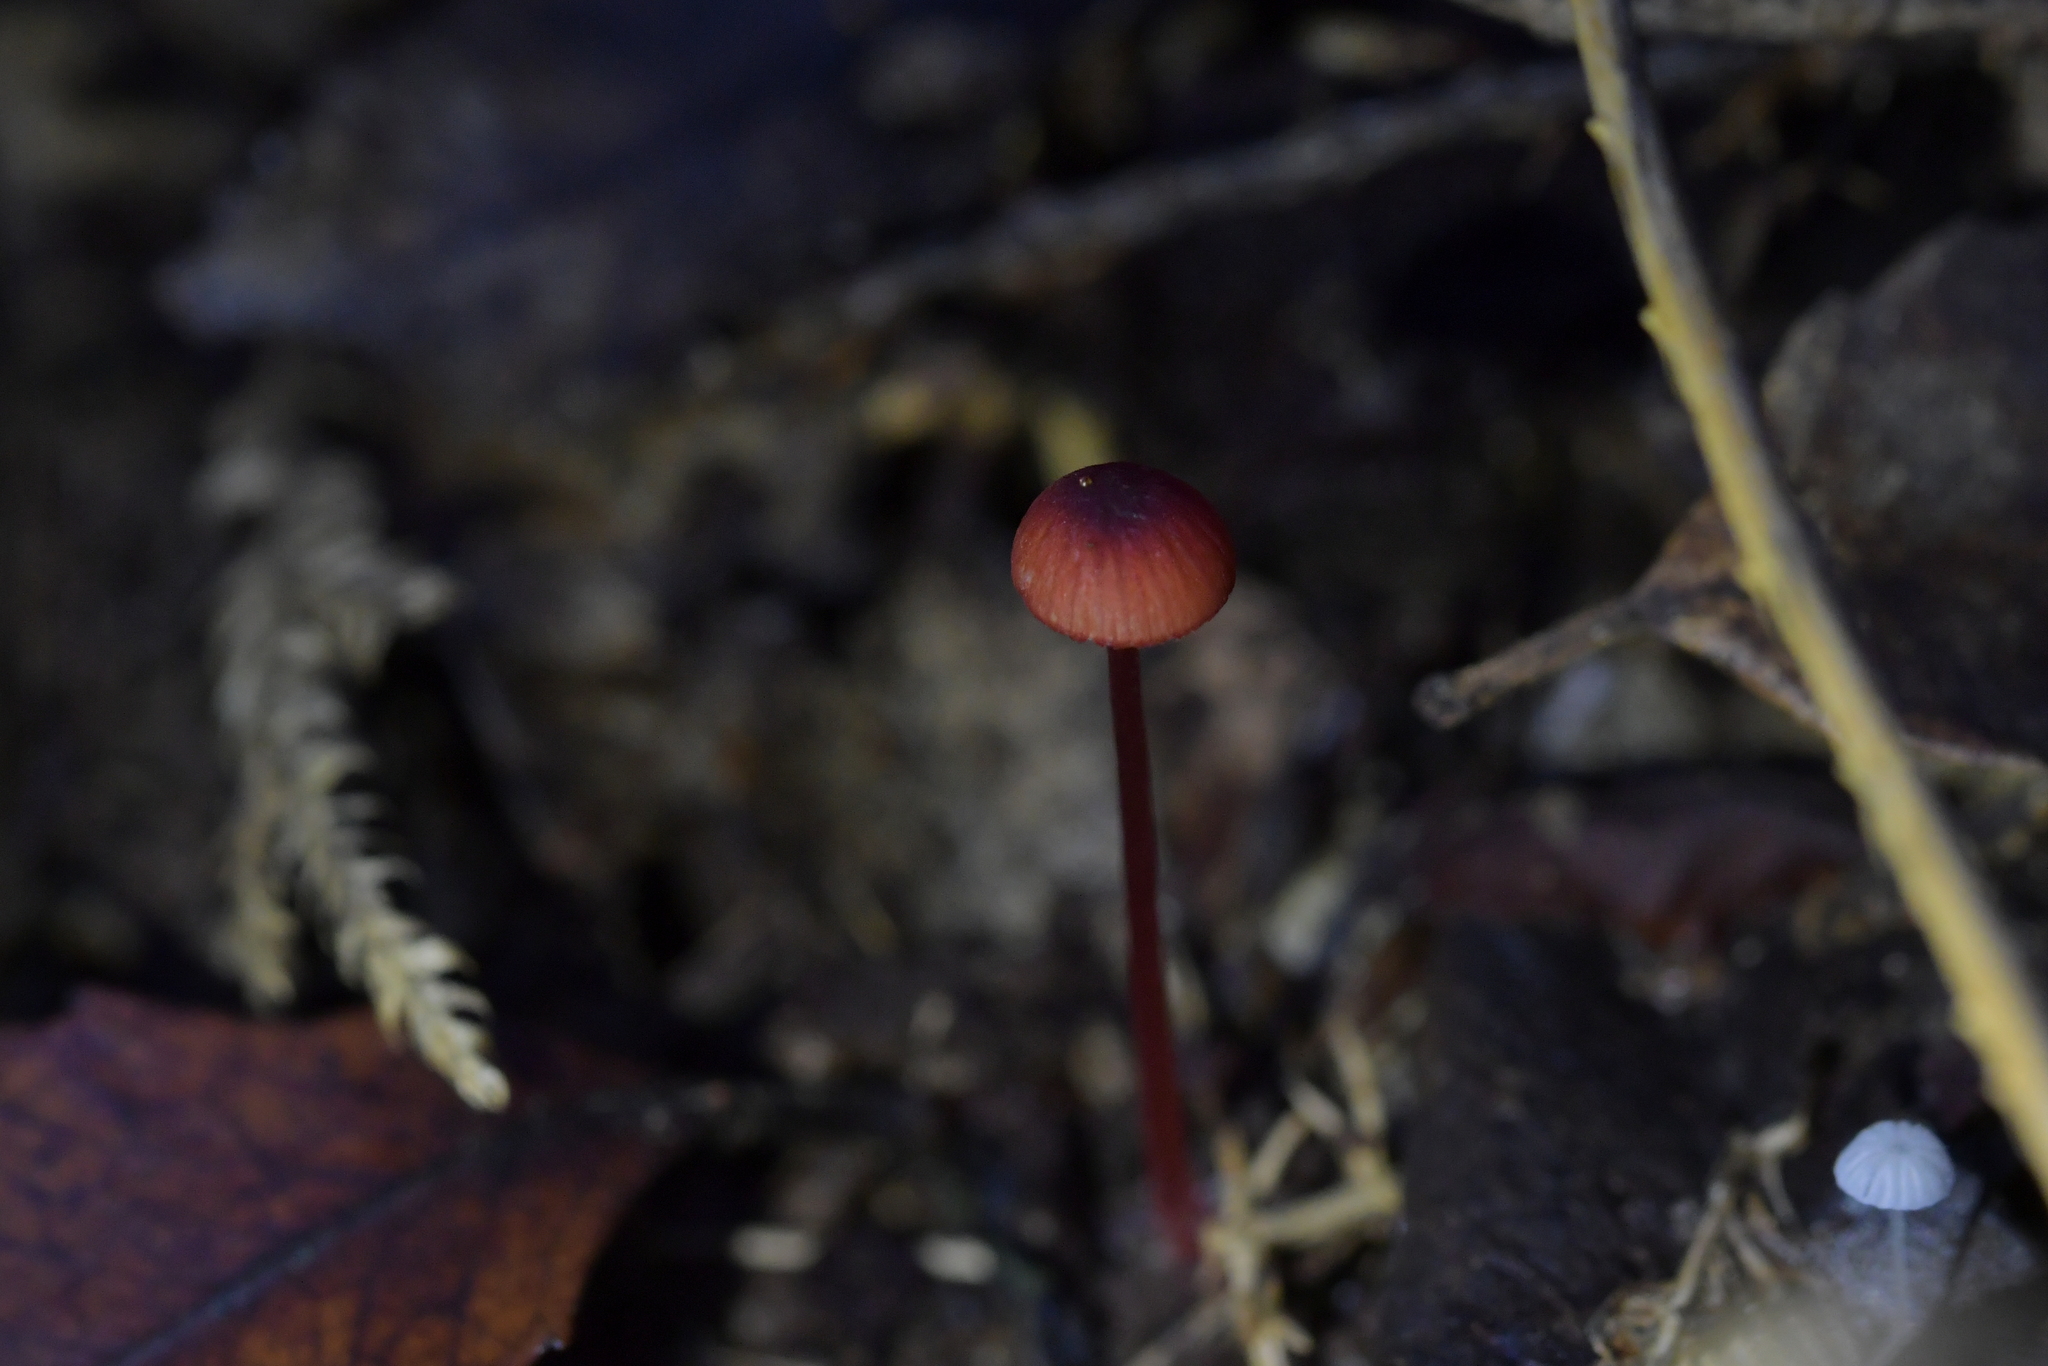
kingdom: Fungi
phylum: Basidiomycota
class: Agaricomycetes
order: Agaricales
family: Mycenaceae
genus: Mycena
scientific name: Mycena ura
